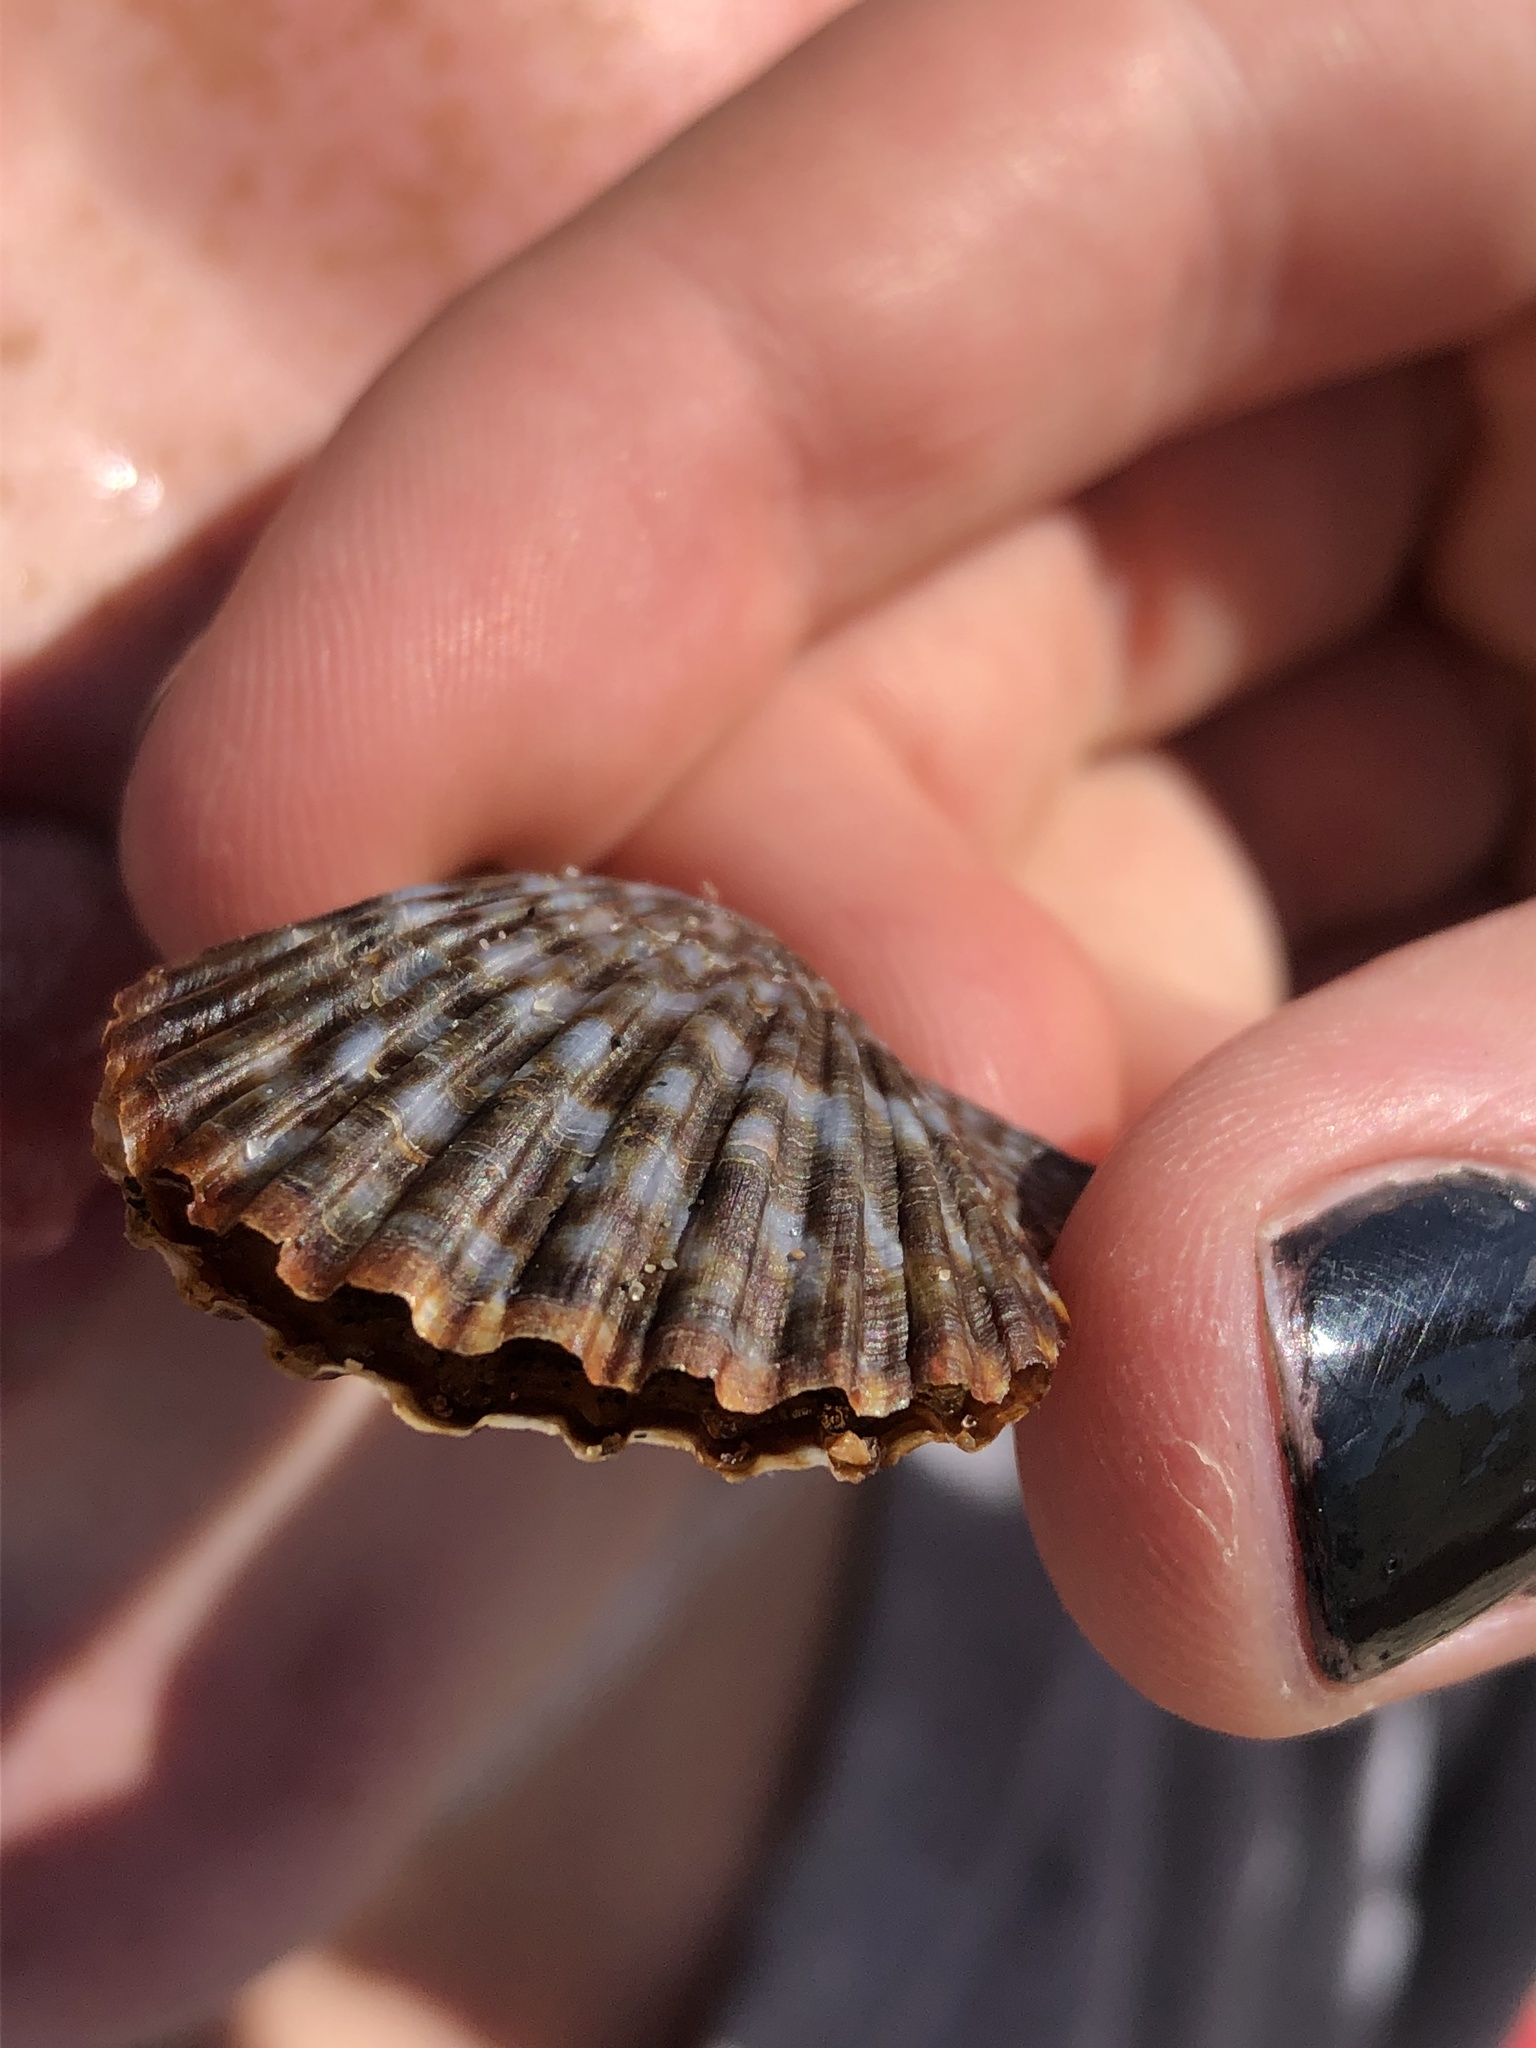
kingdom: Animalia
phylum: Mollusca
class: Bivalvia
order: Pectinida
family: Pectinidae
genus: Leptopecten
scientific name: Leptopecten latiauratus
